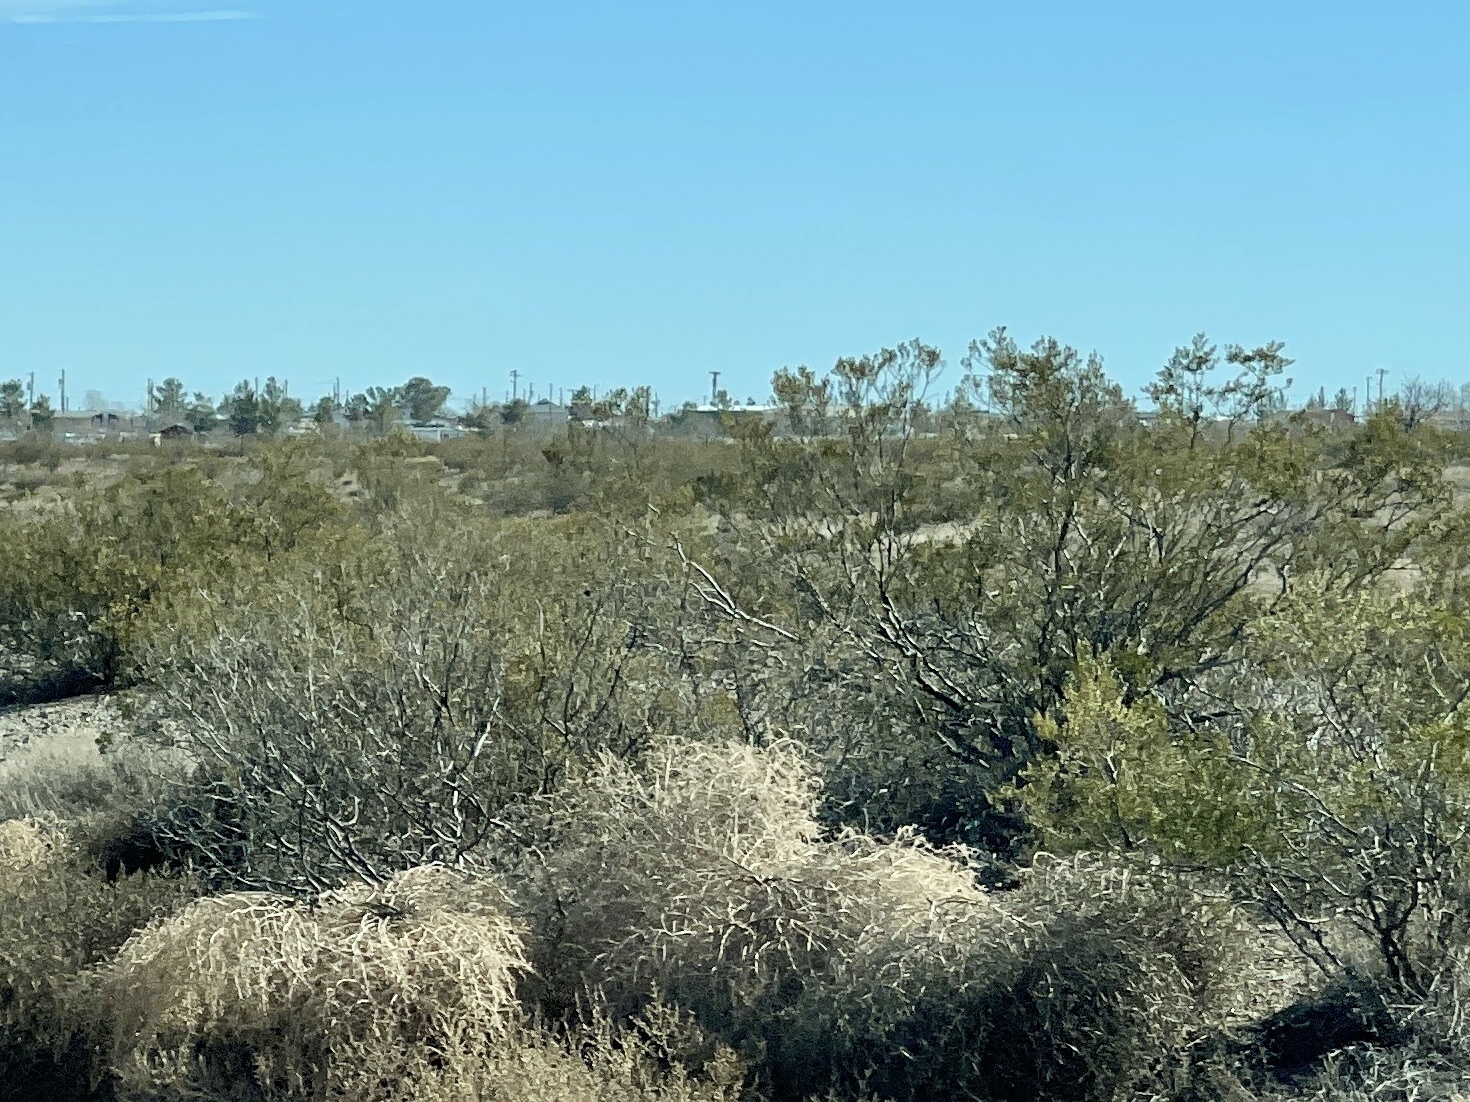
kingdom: Plantae
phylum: Tracheophyta
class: Magnoliopsida
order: Zygophyllales
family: Zygophyllaceae
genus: Larrea
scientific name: Larrea tridentata
